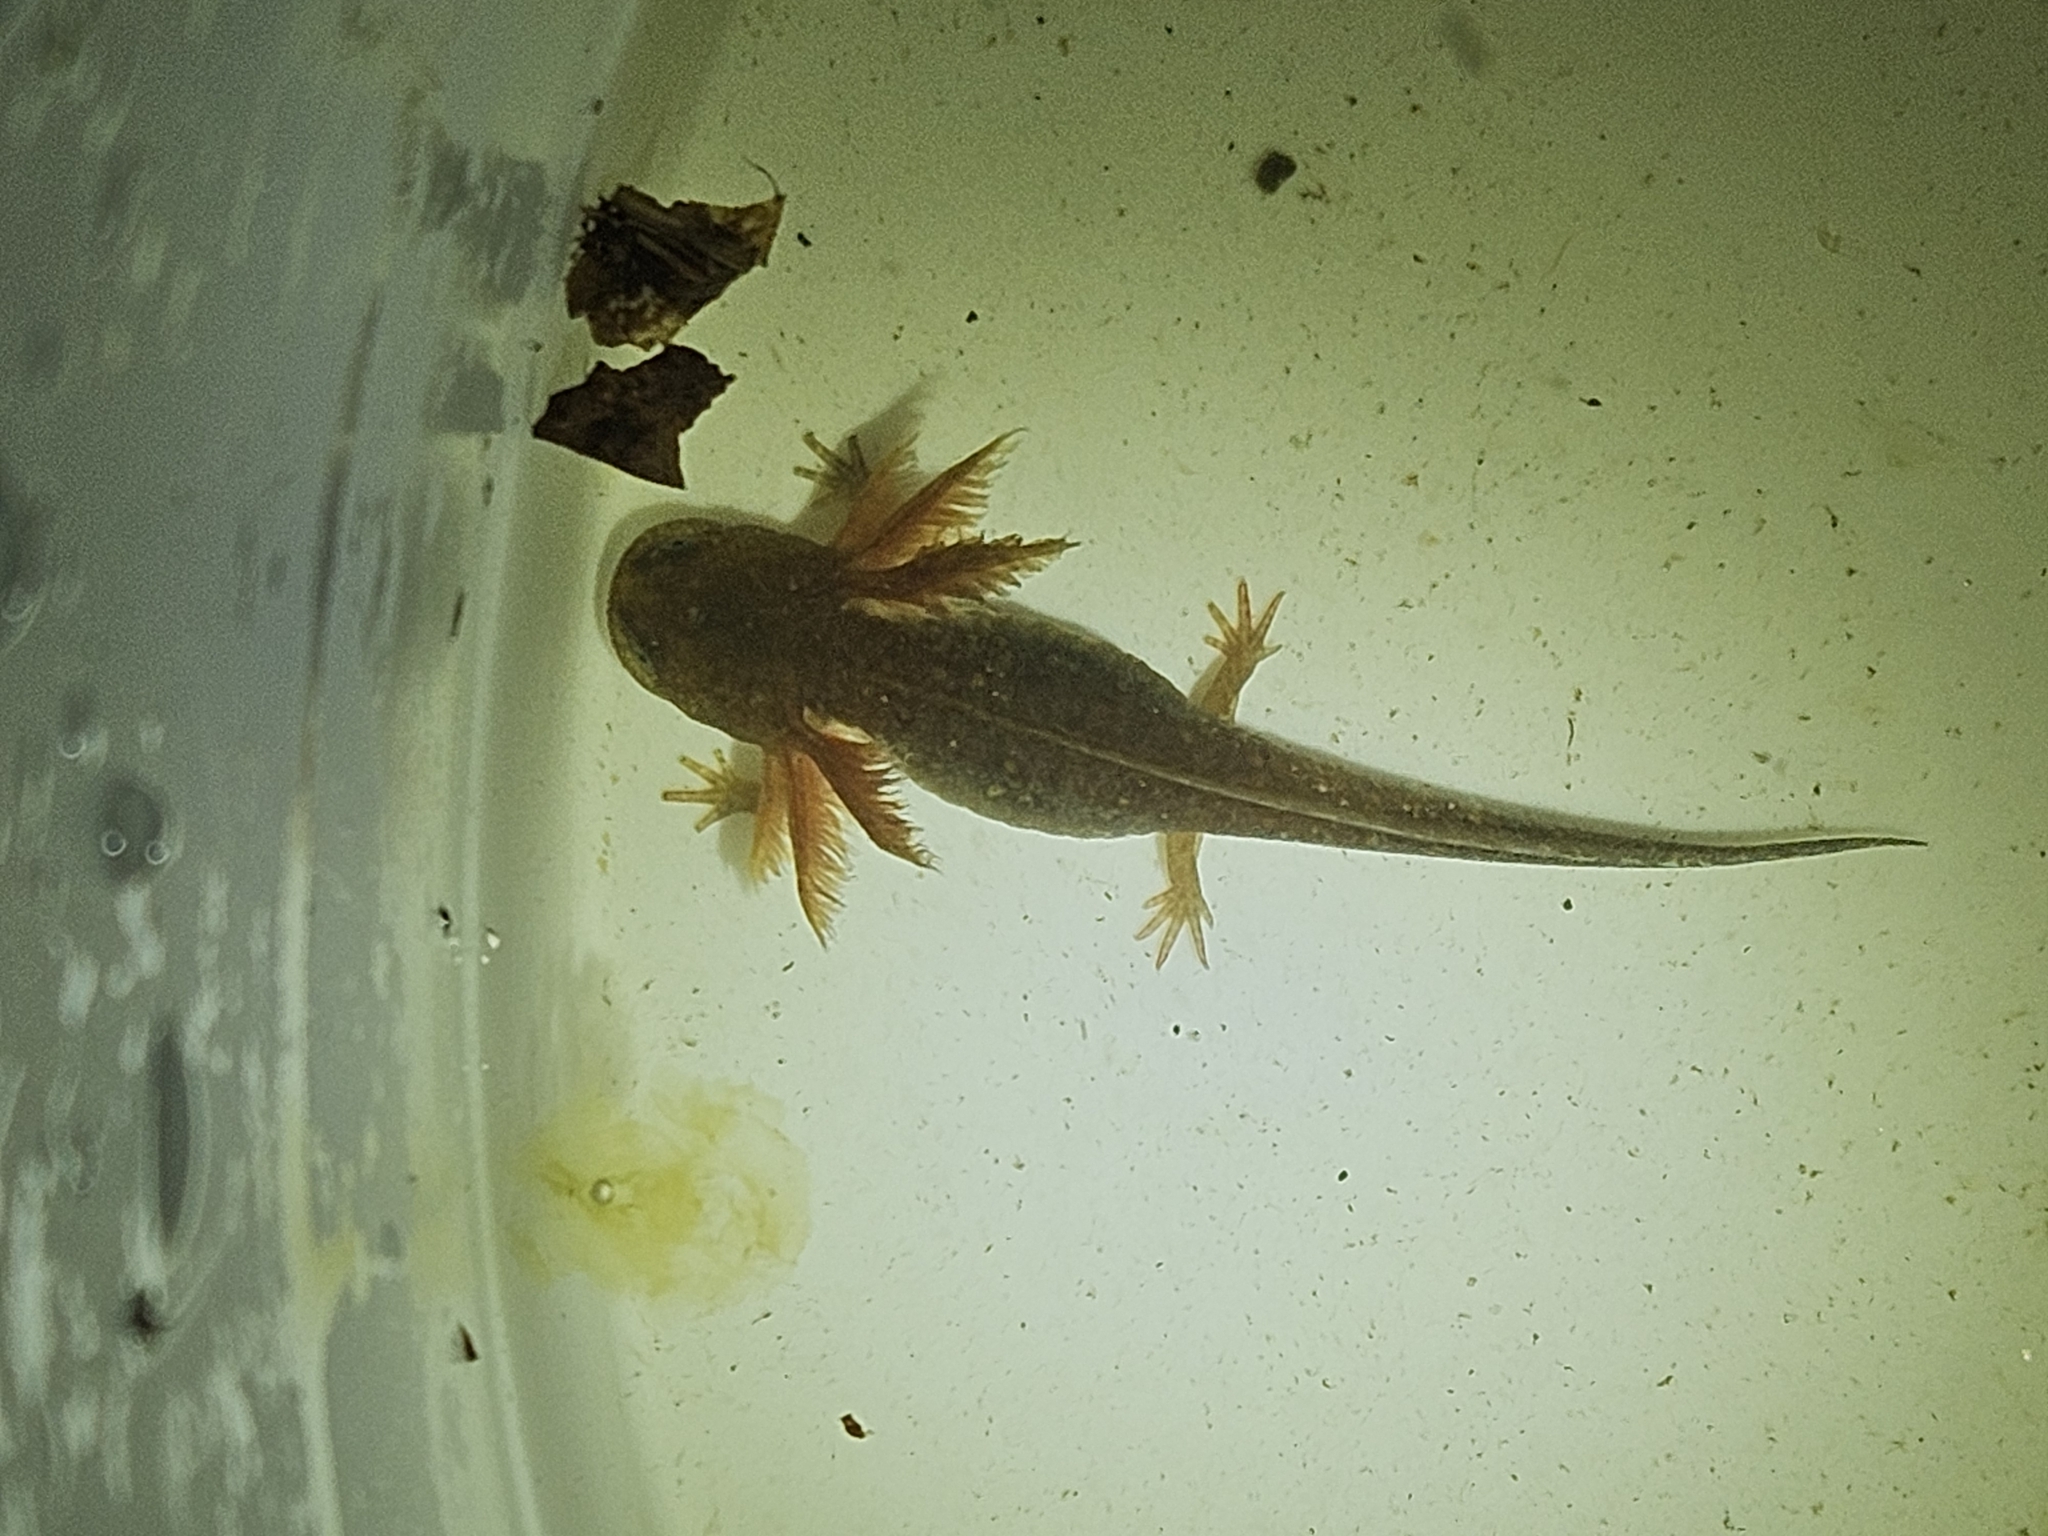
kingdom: Animalia
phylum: Chordata
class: Amphibia
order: Caudata
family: Ambystomatidae
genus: Ambystoma
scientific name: Ambystoma opacum
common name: Marbled salamander
